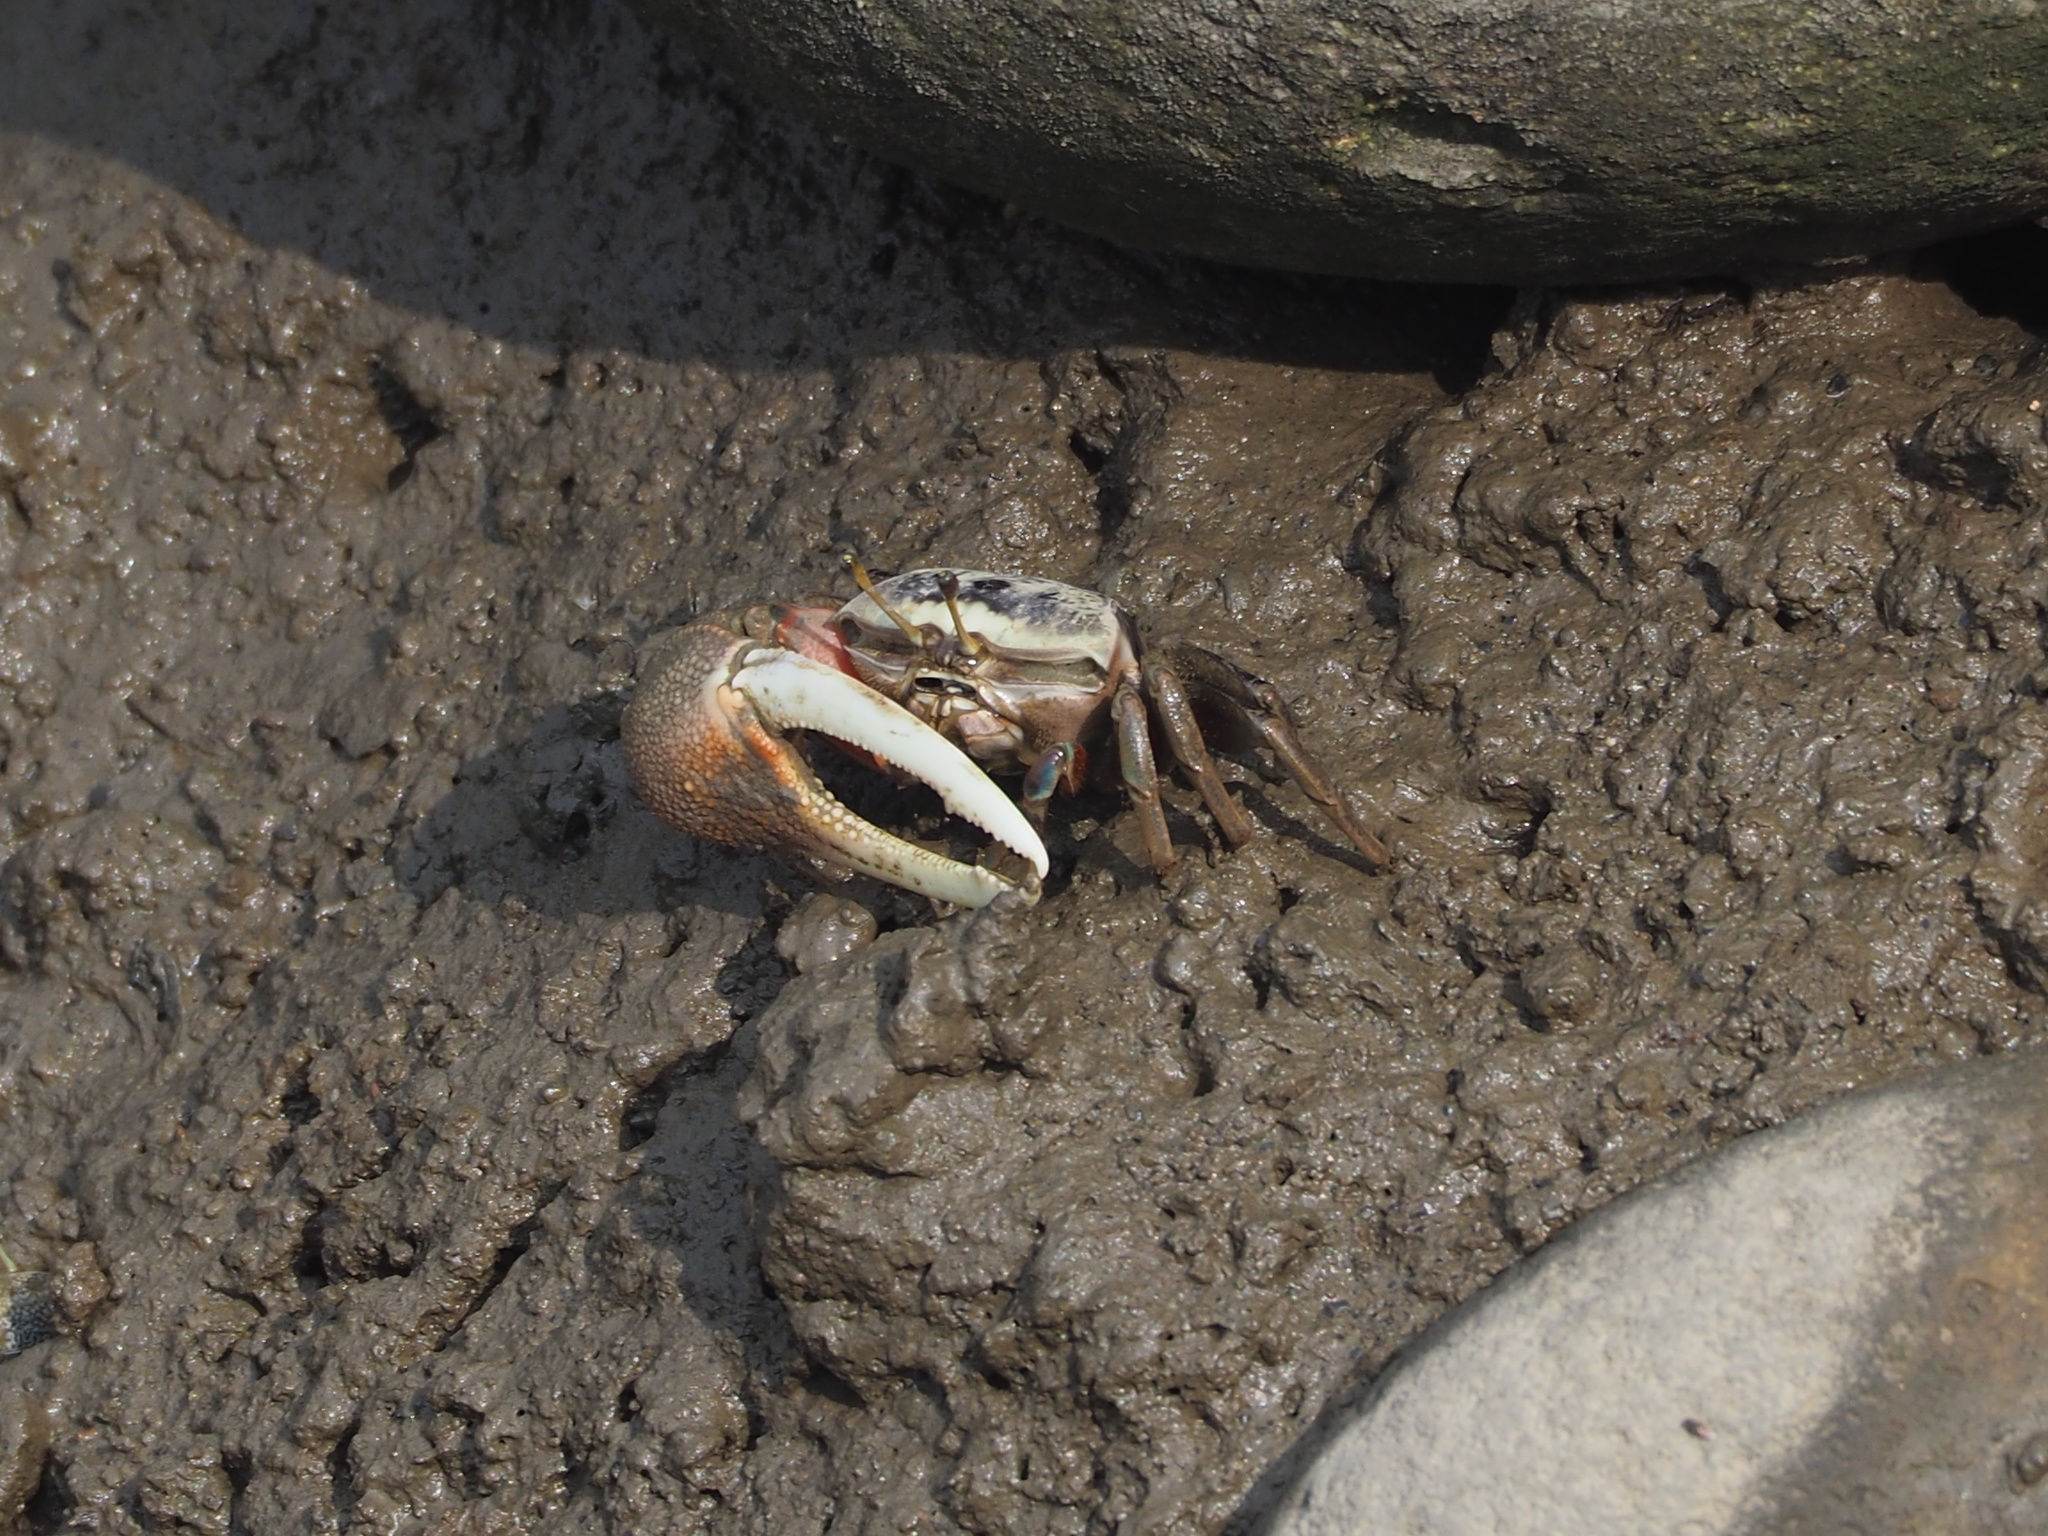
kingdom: Animalia
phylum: Arthropoda
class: Malacostraca
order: Decapoda
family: Ocypodidae
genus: Tubuca
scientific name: Tubuca arcuata
